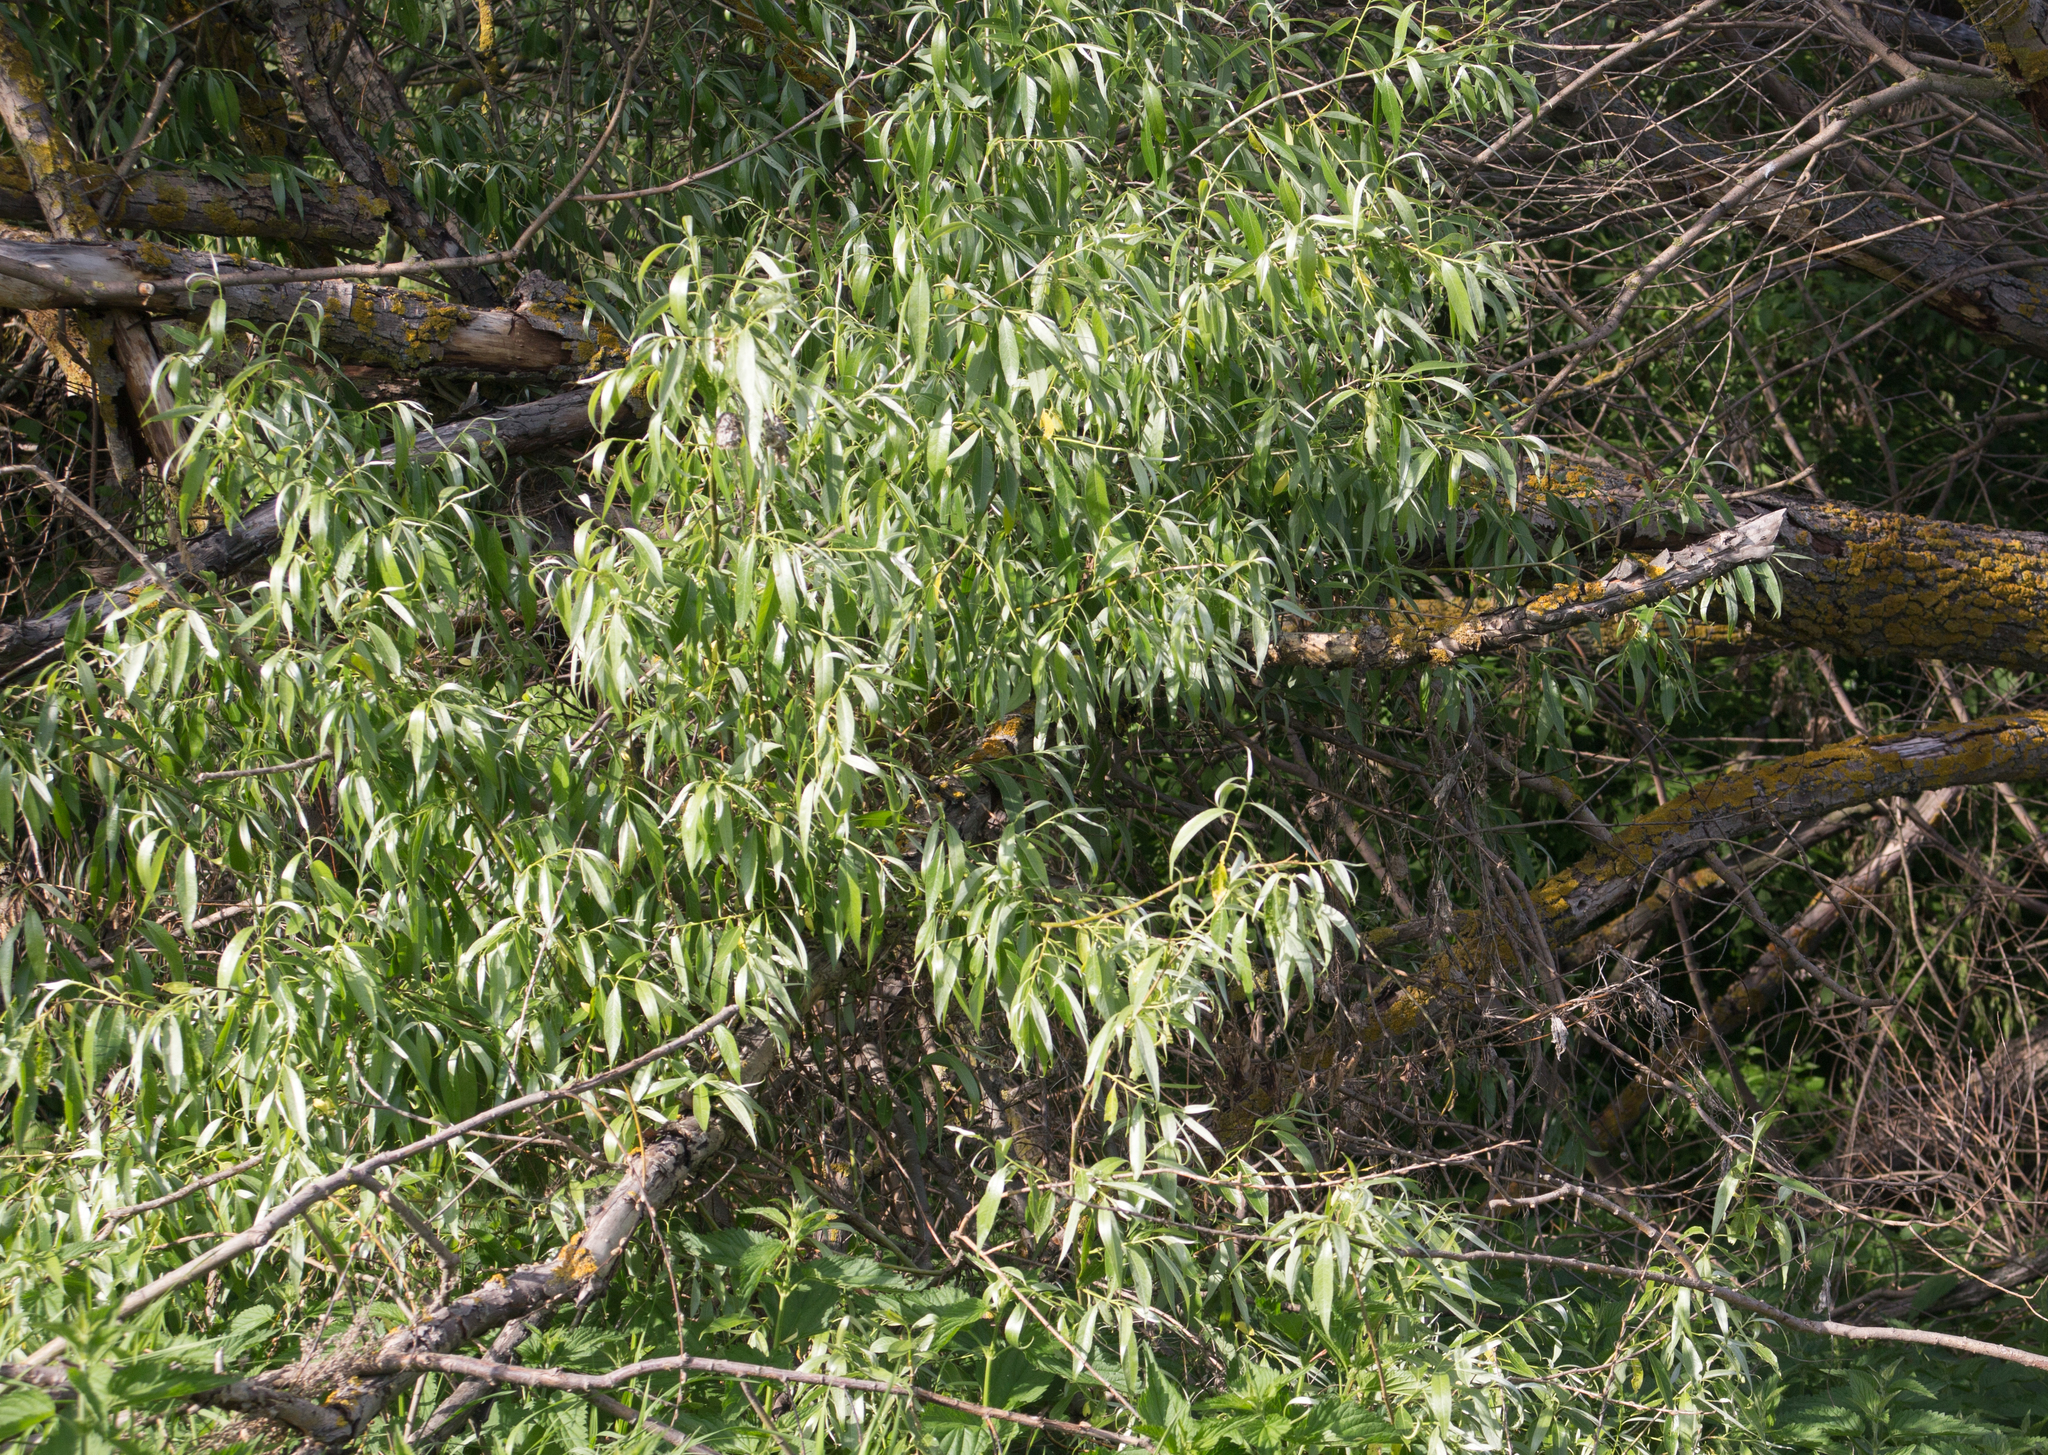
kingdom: Plantae
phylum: Tracheophyta
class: Magnoliopsida
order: Malpighiales
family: Salicaceae
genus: Salix
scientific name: Salix alba
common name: White willow
